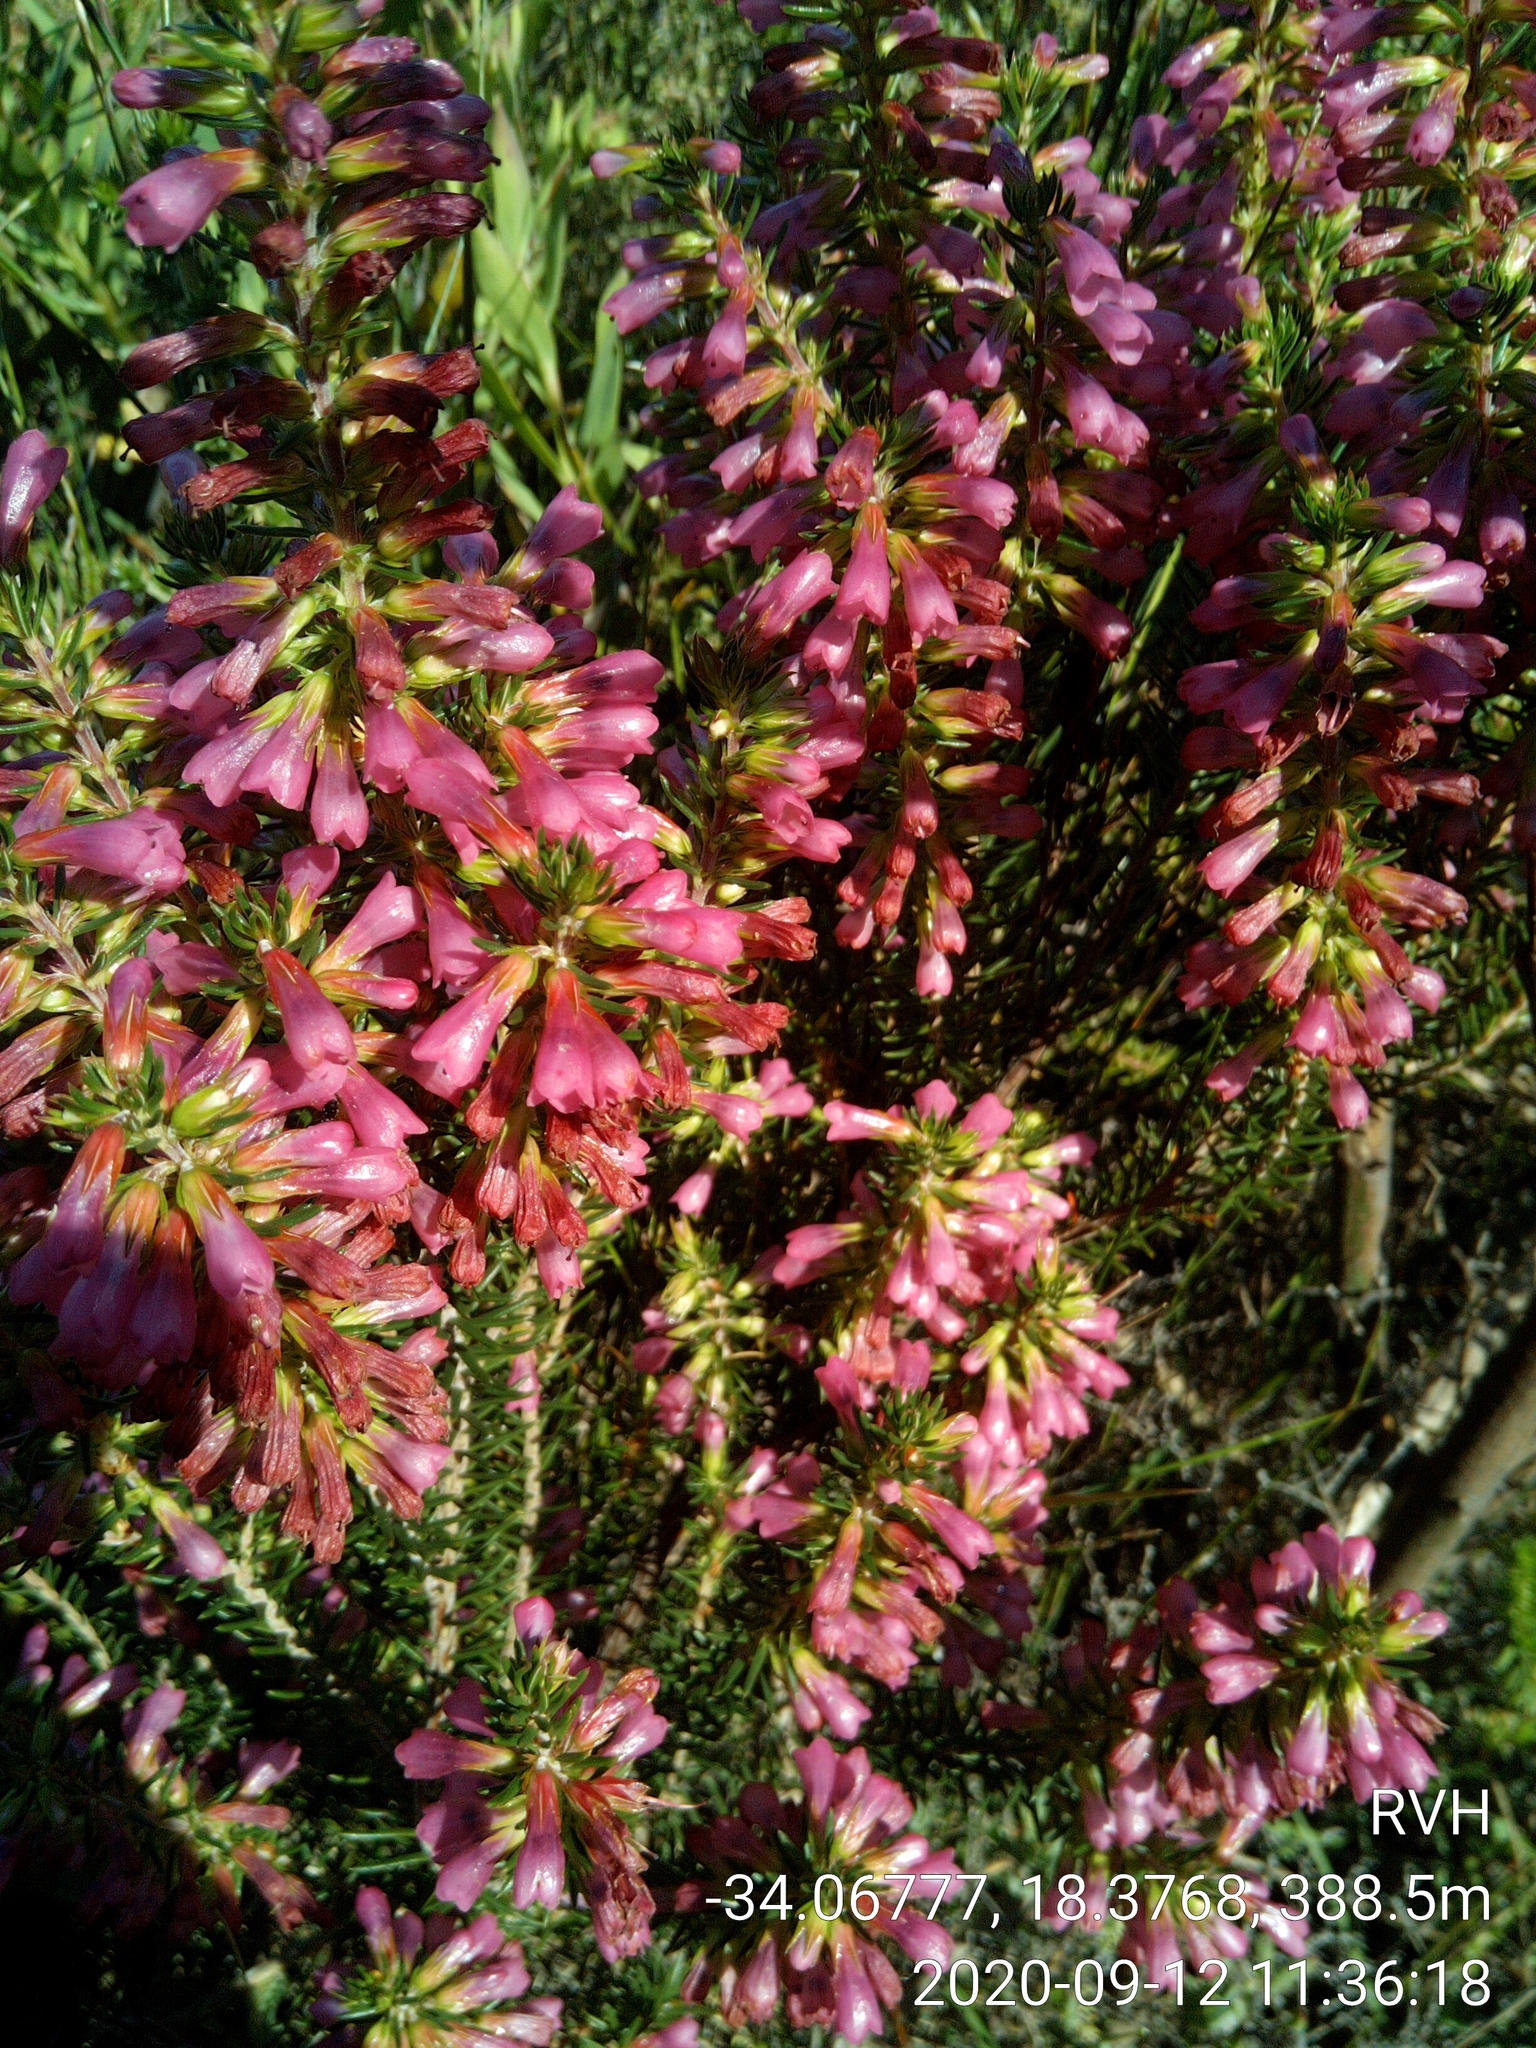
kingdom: Plantae
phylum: Tracheophyta
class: Magnoliopsida
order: Ericales
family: Ericaceae
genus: Erica
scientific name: Erica abietina
